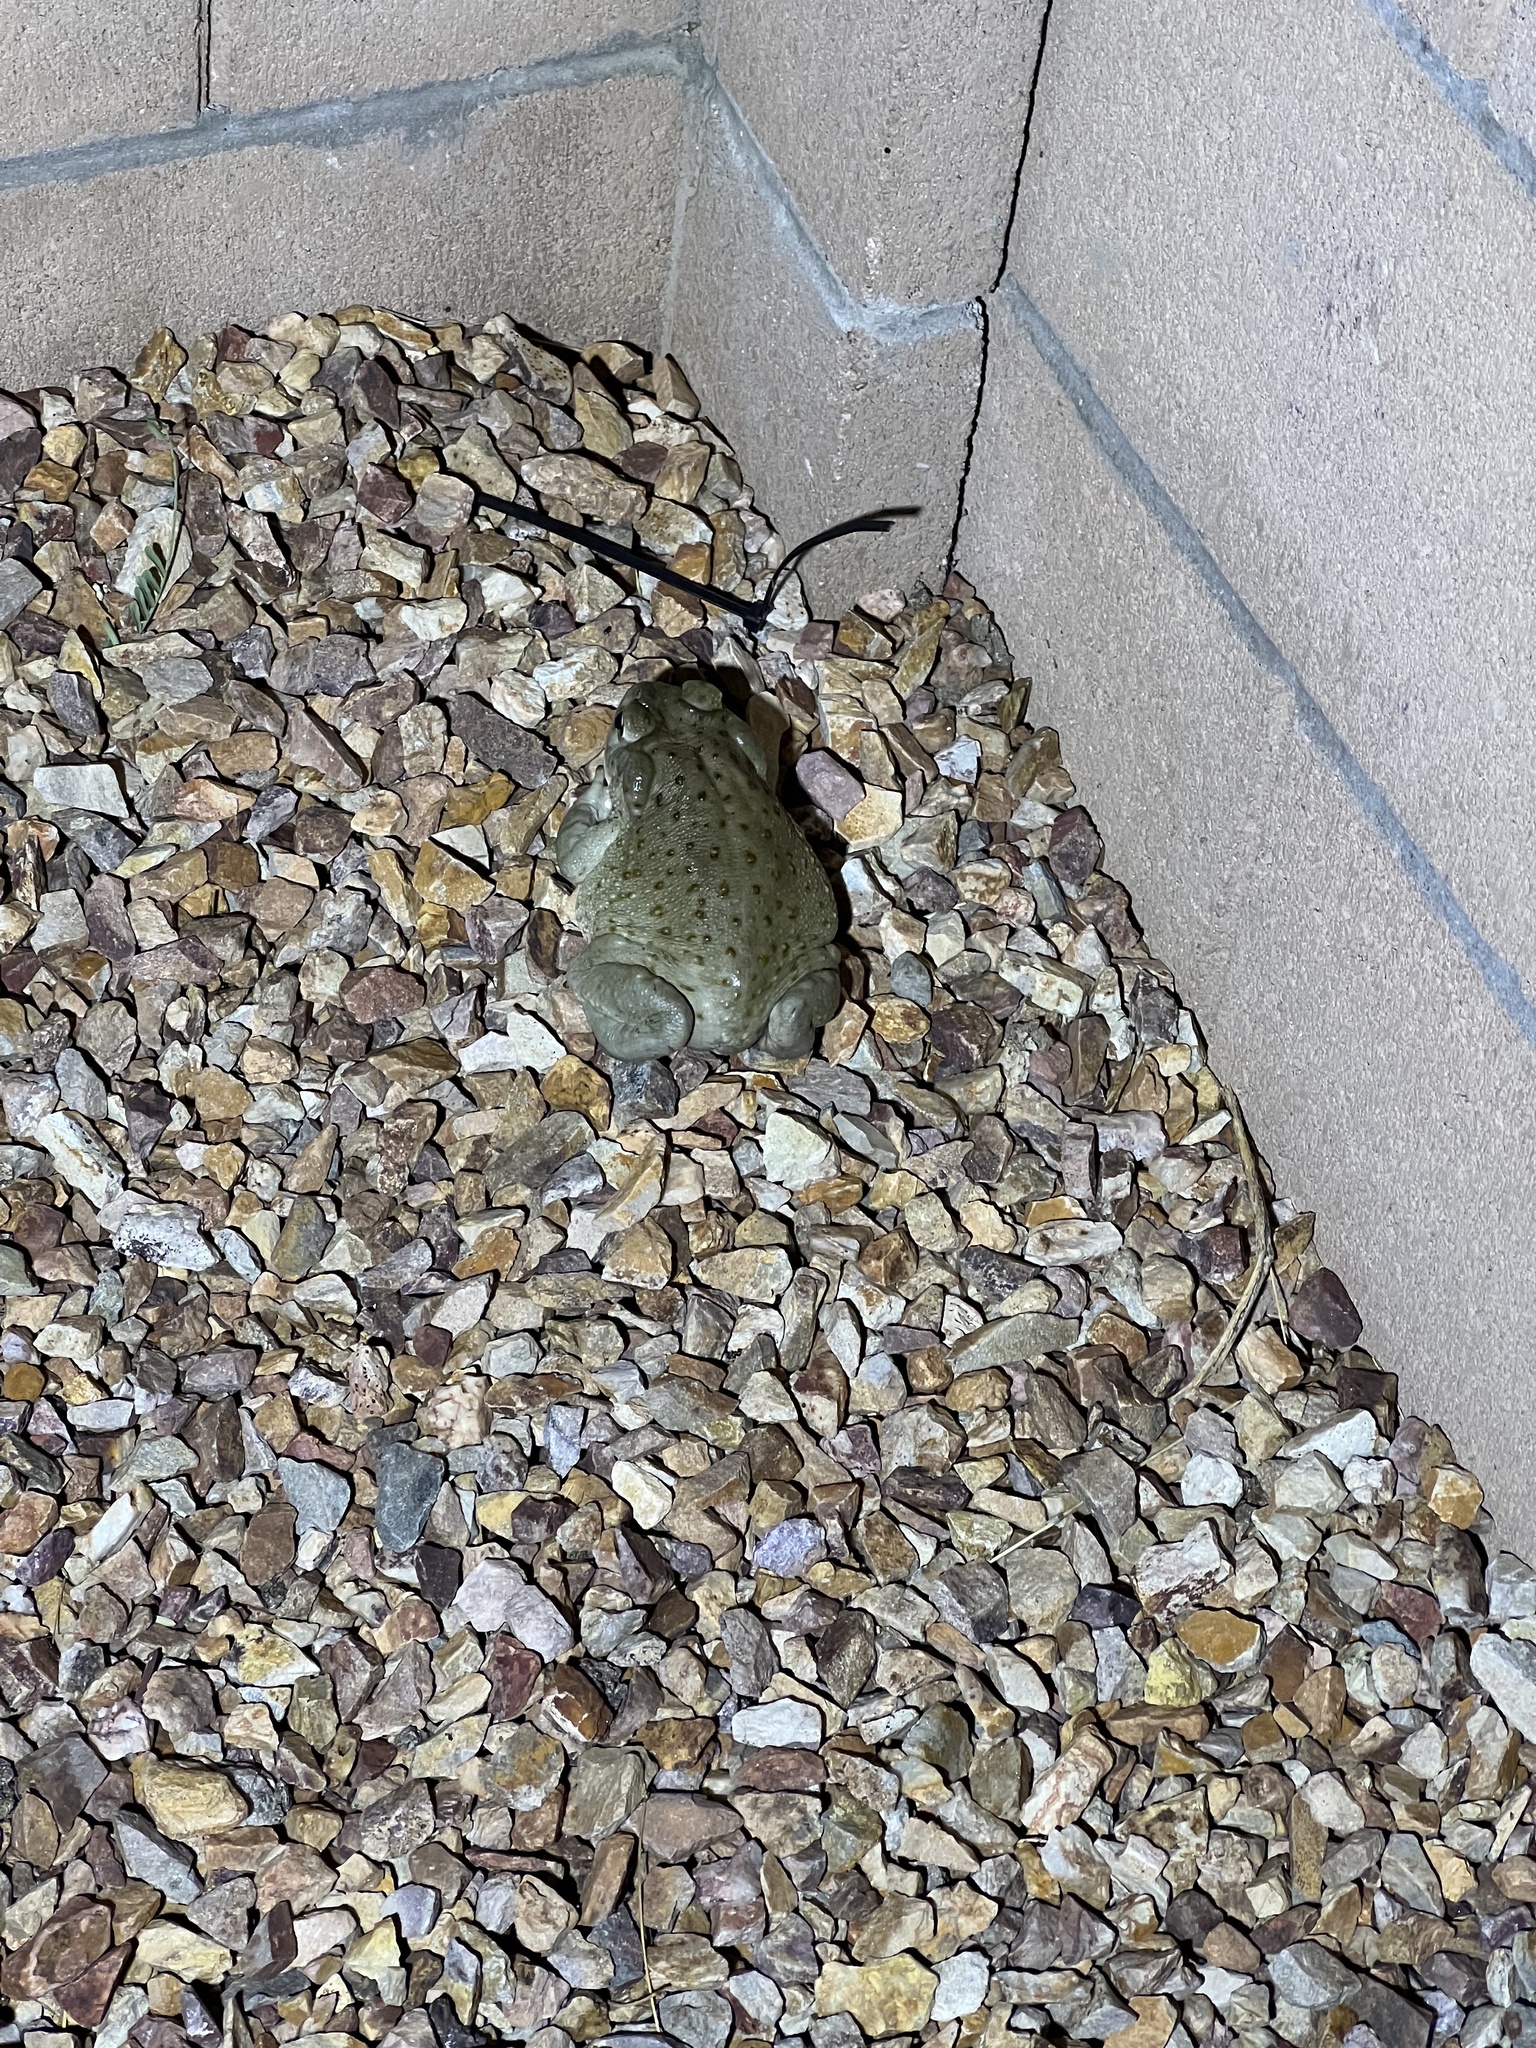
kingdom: Animalia
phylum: Chordata
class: Amphibia
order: Anura
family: Bufonidae
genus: Incilius
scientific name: Incilius alvarius
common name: Sonoran desert toad
